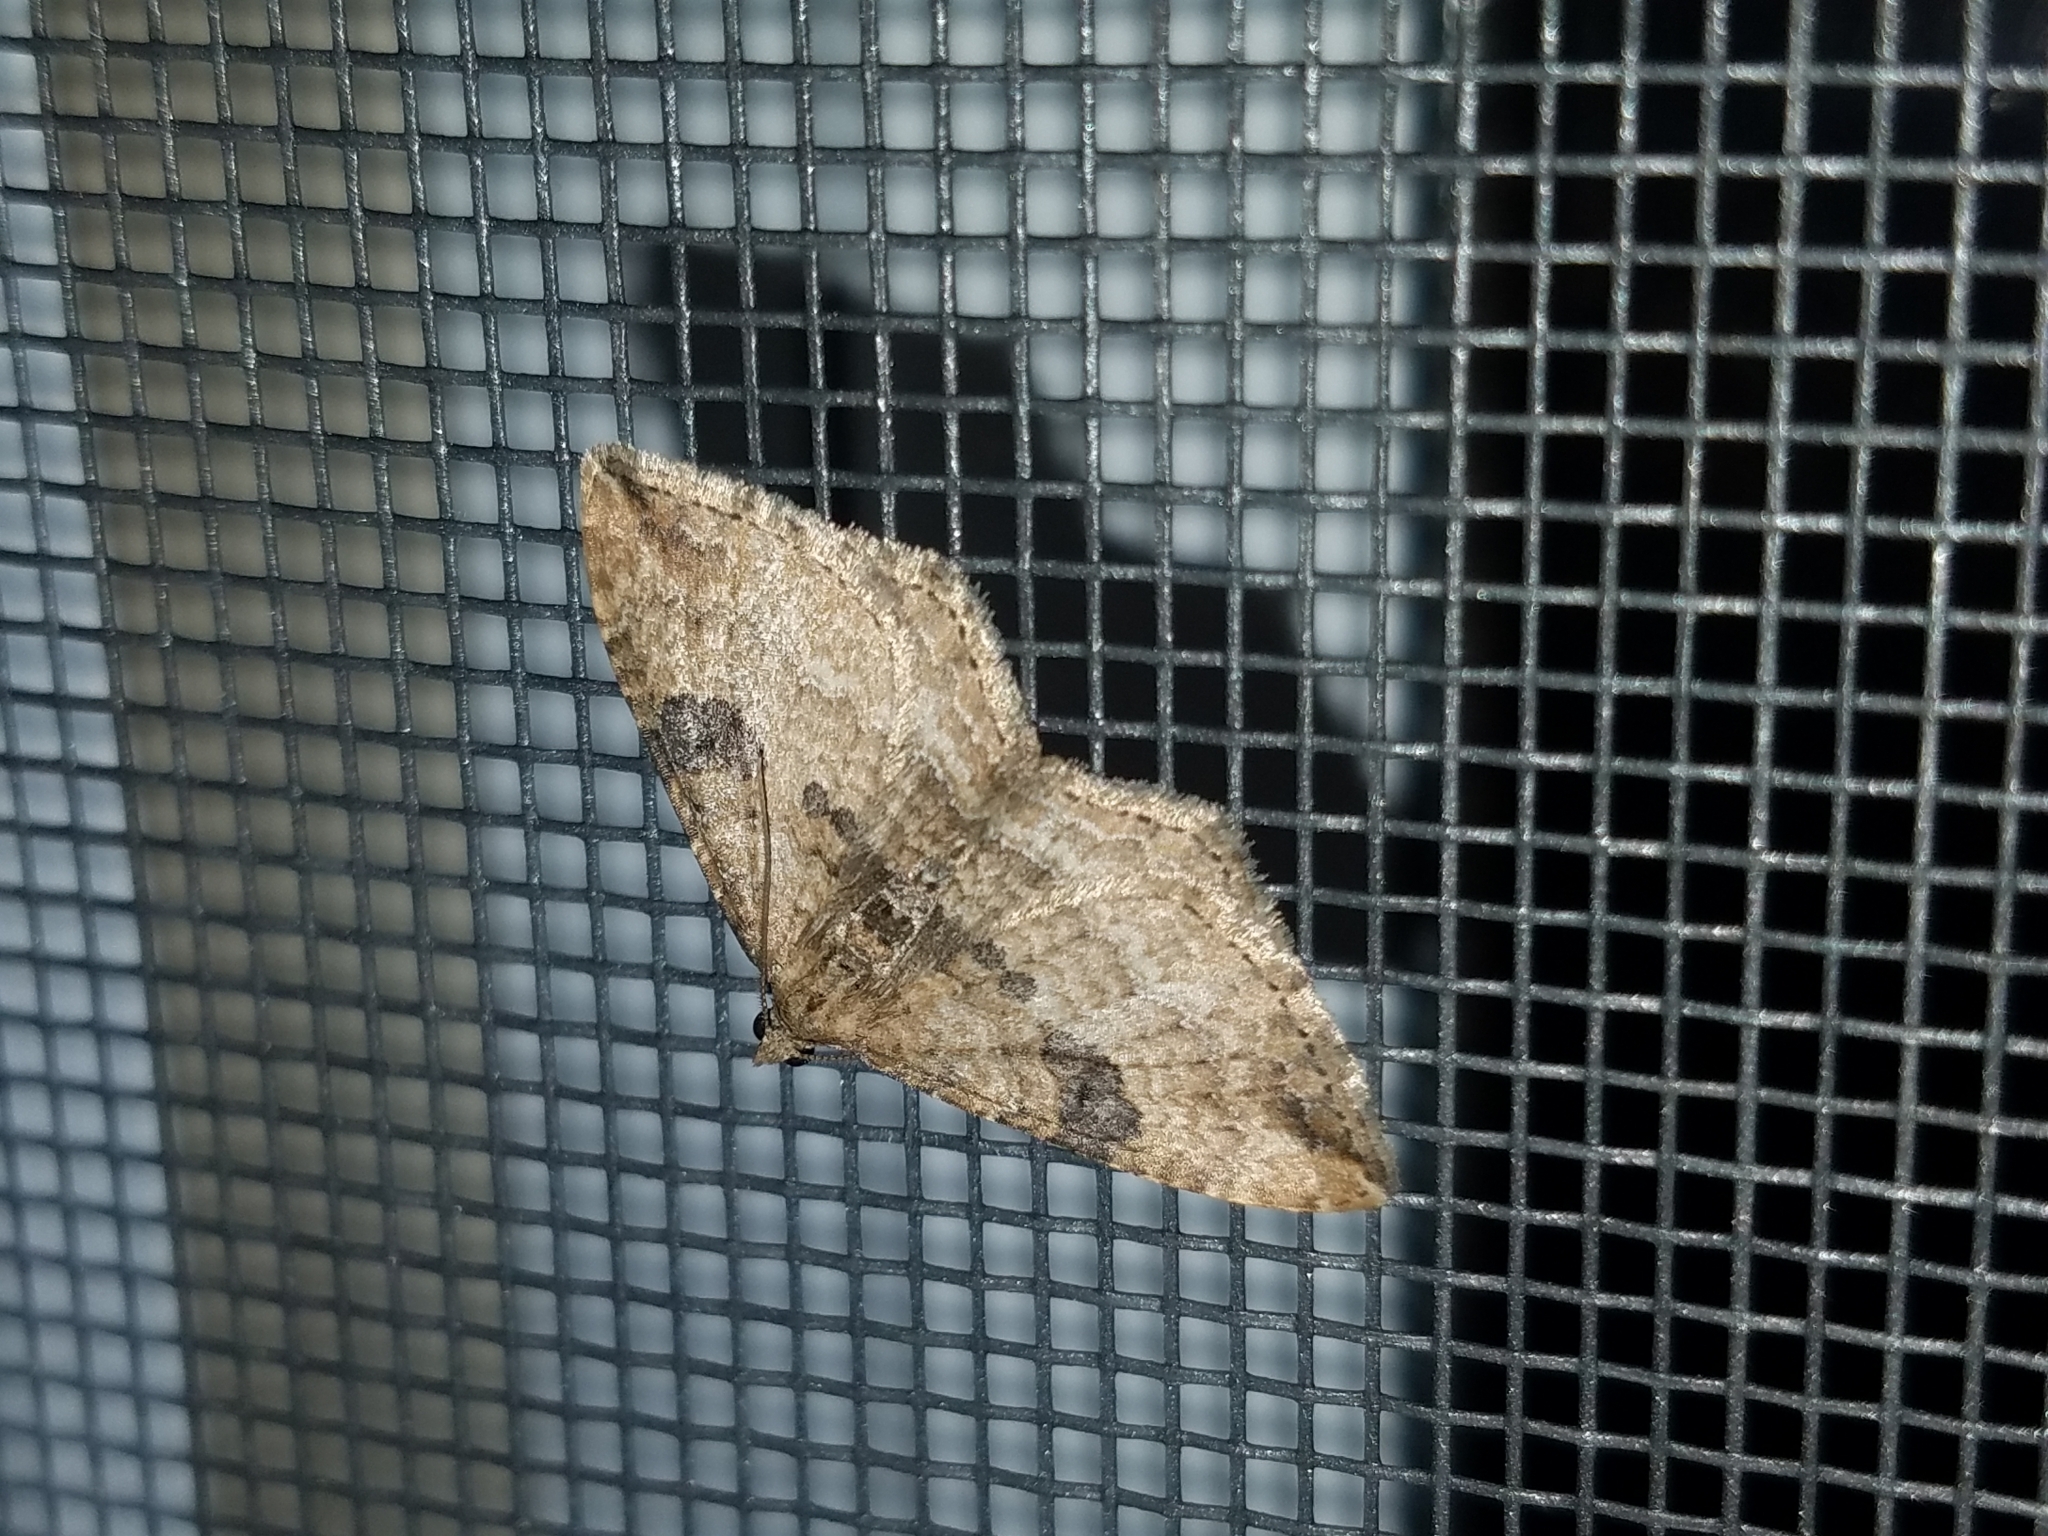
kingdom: Animalia
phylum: Arthropoda
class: Insecta
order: Lepidoptera
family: Geometridae
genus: Orthonama
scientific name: Orthonama obstipata
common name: The gem
